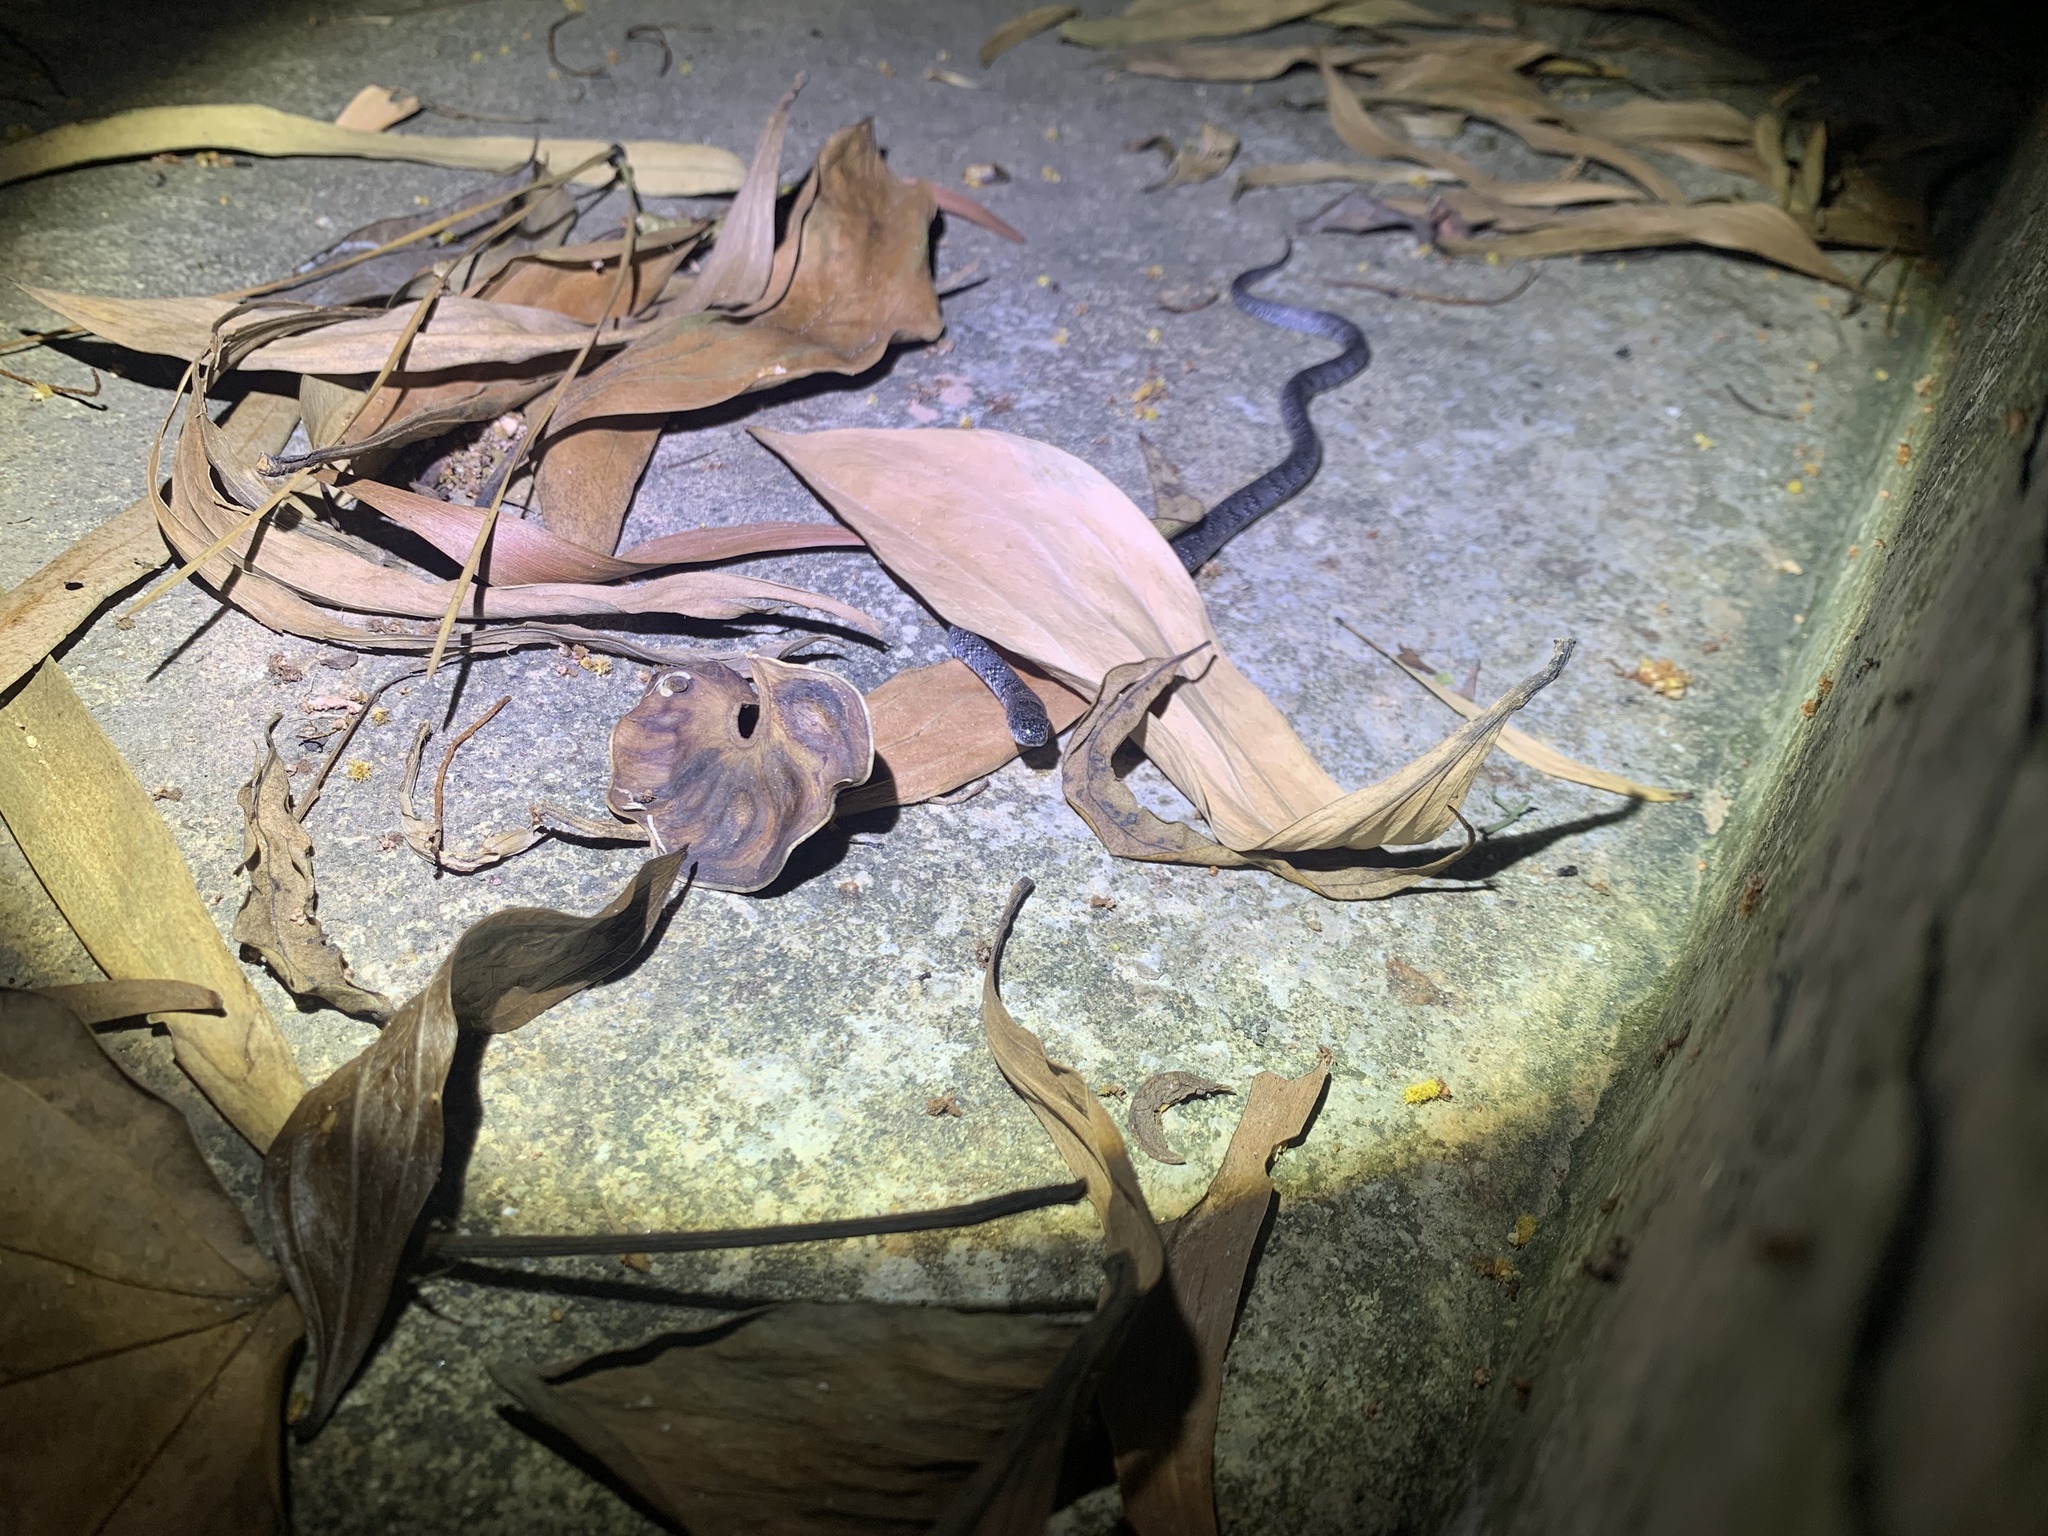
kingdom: Animalia
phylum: Chordata
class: Squamata
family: Pareidae
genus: Pareas
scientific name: Pareas margaritophorus
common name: Mountain slug snake
